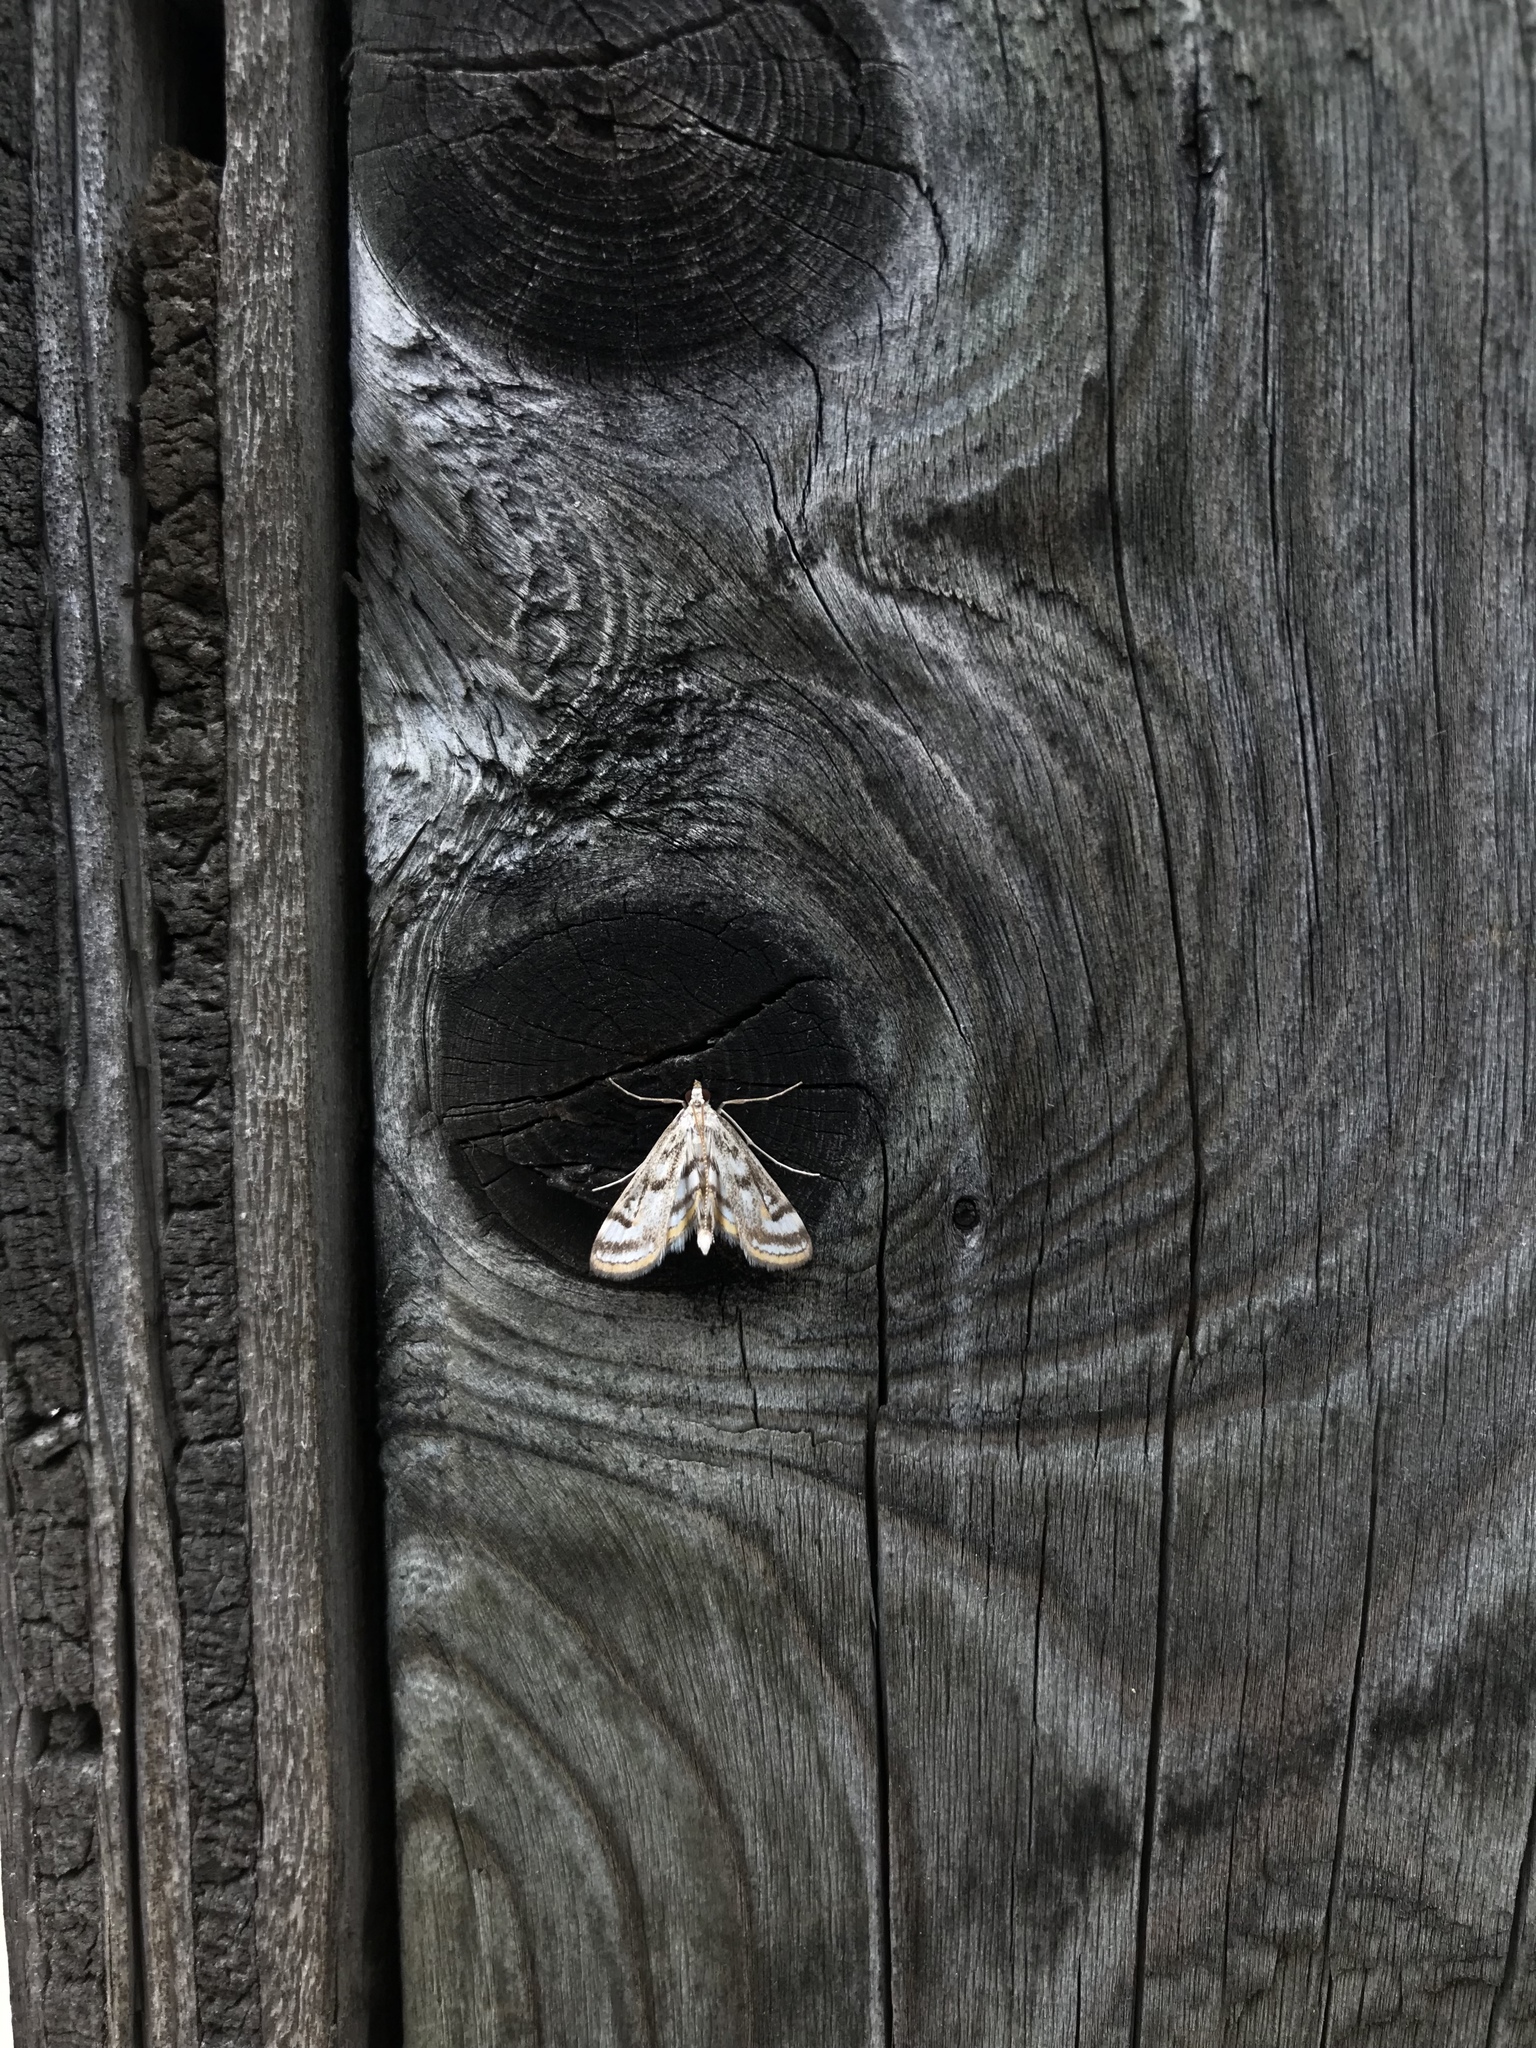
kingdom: Animalia
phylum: Arthropoda
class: Insecta
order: Lepidoptera
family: Crambidae
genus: Parapoynx
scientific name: Parapoynx badiusalis
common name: Chestnut-marked pondweed moth
